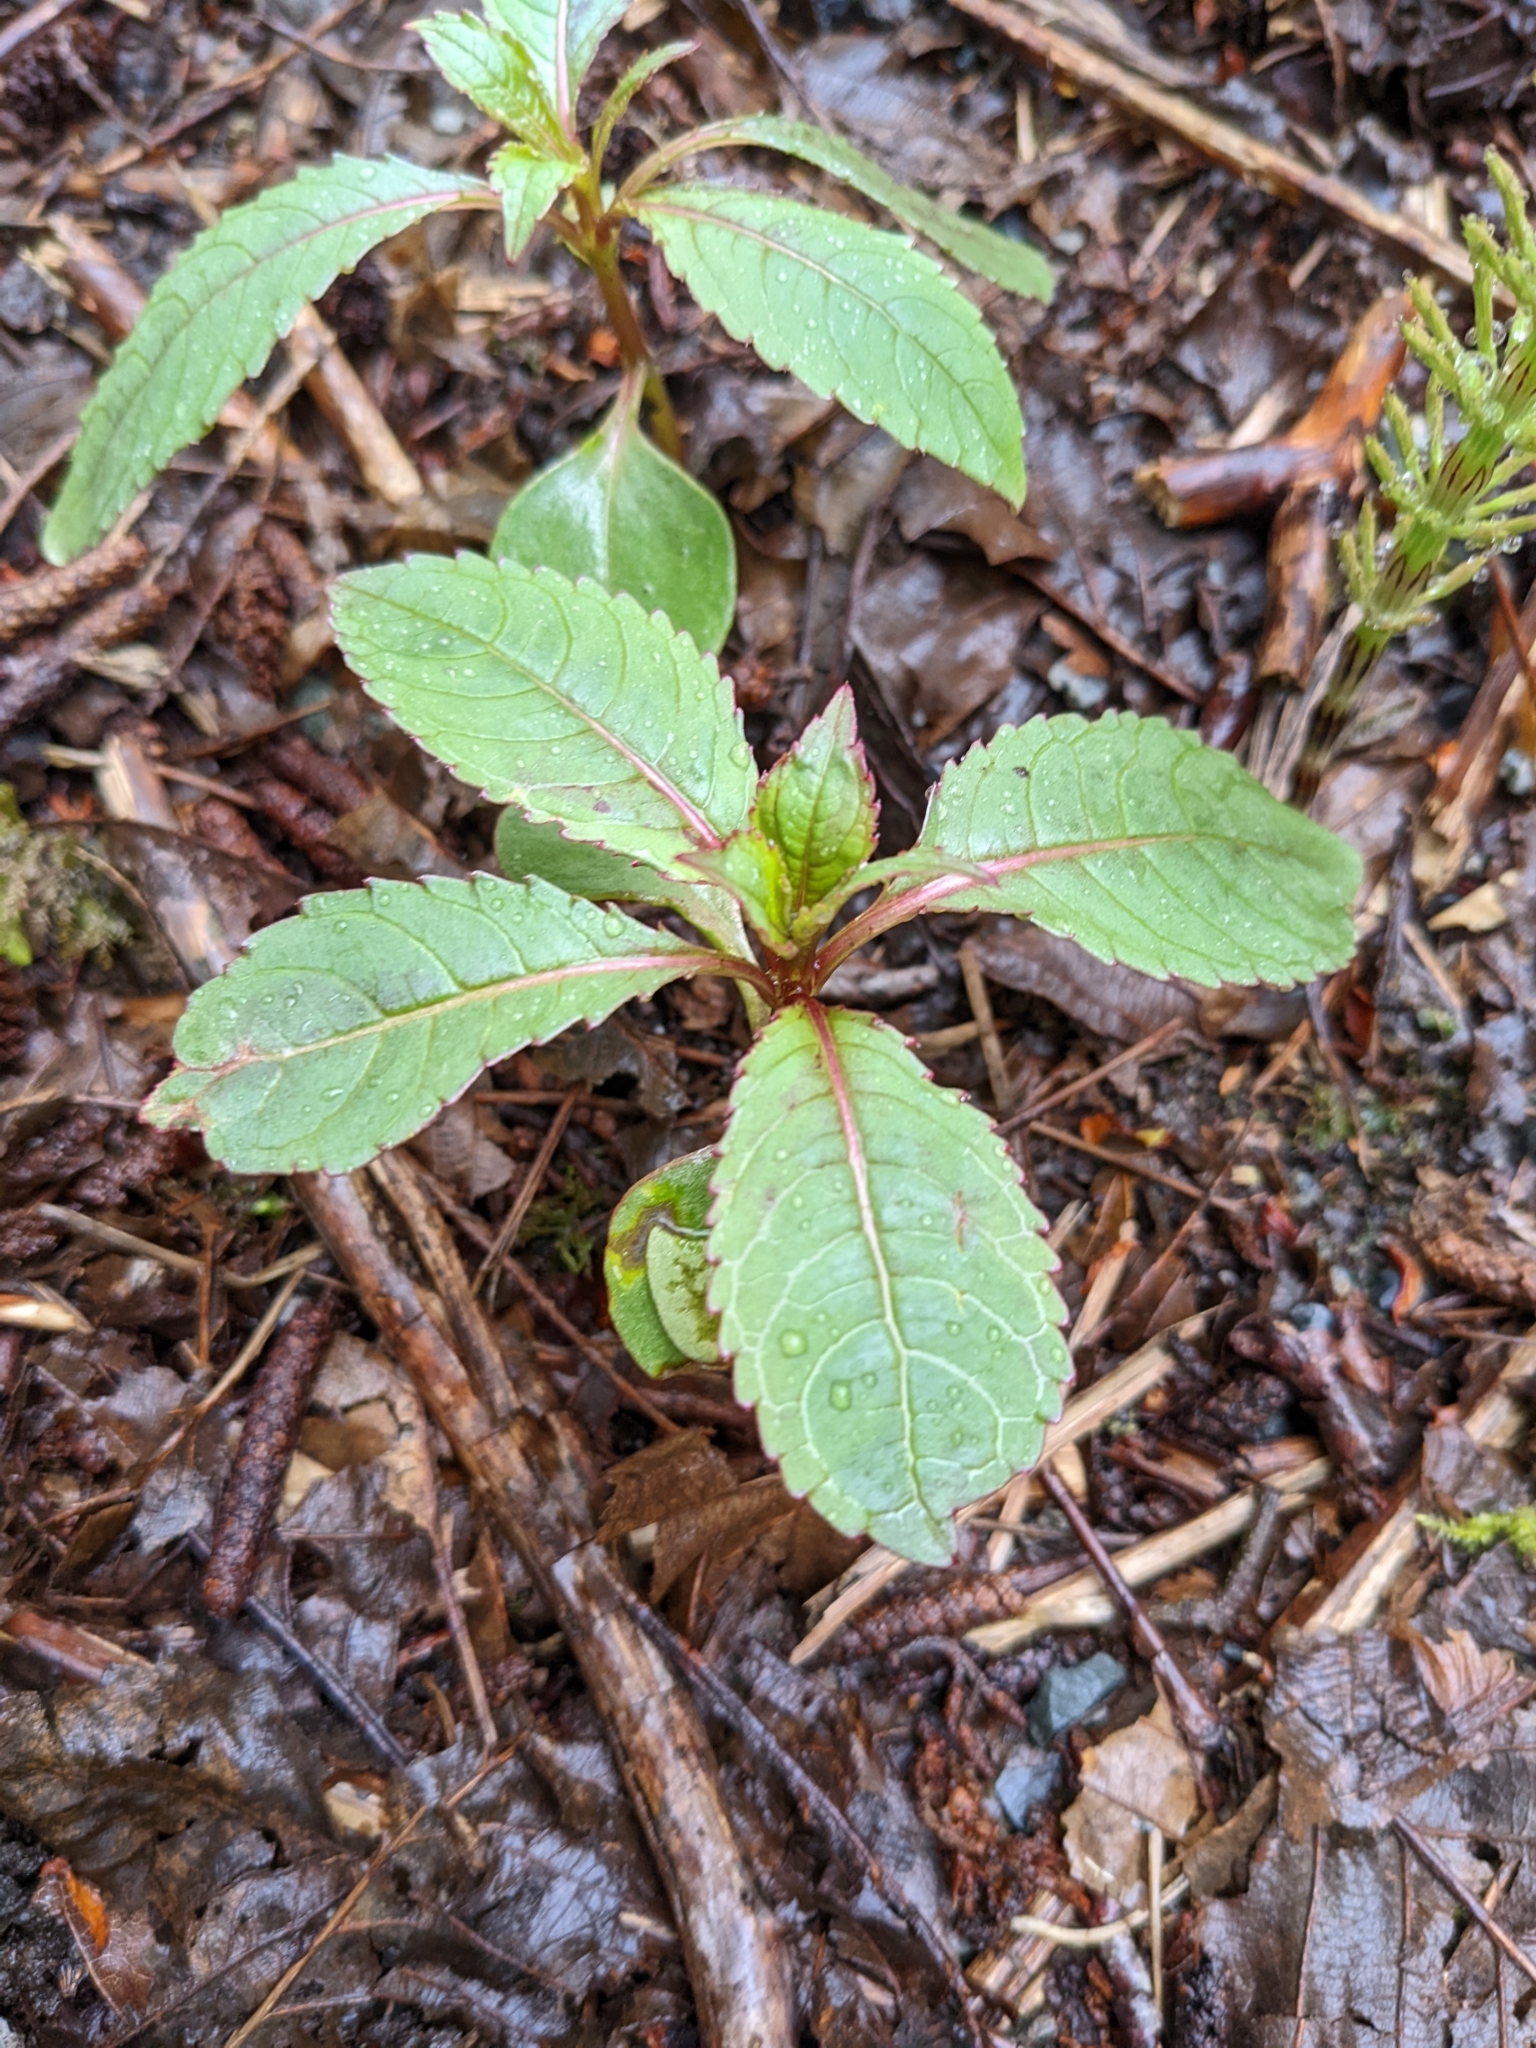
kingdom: Plantae
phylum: Tracheophyta
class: Magnoliopsida
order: Ericales
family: Balsaminaceae
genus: Impatiens
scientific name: Impatiens glandulifera
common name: Himalayan balsam
